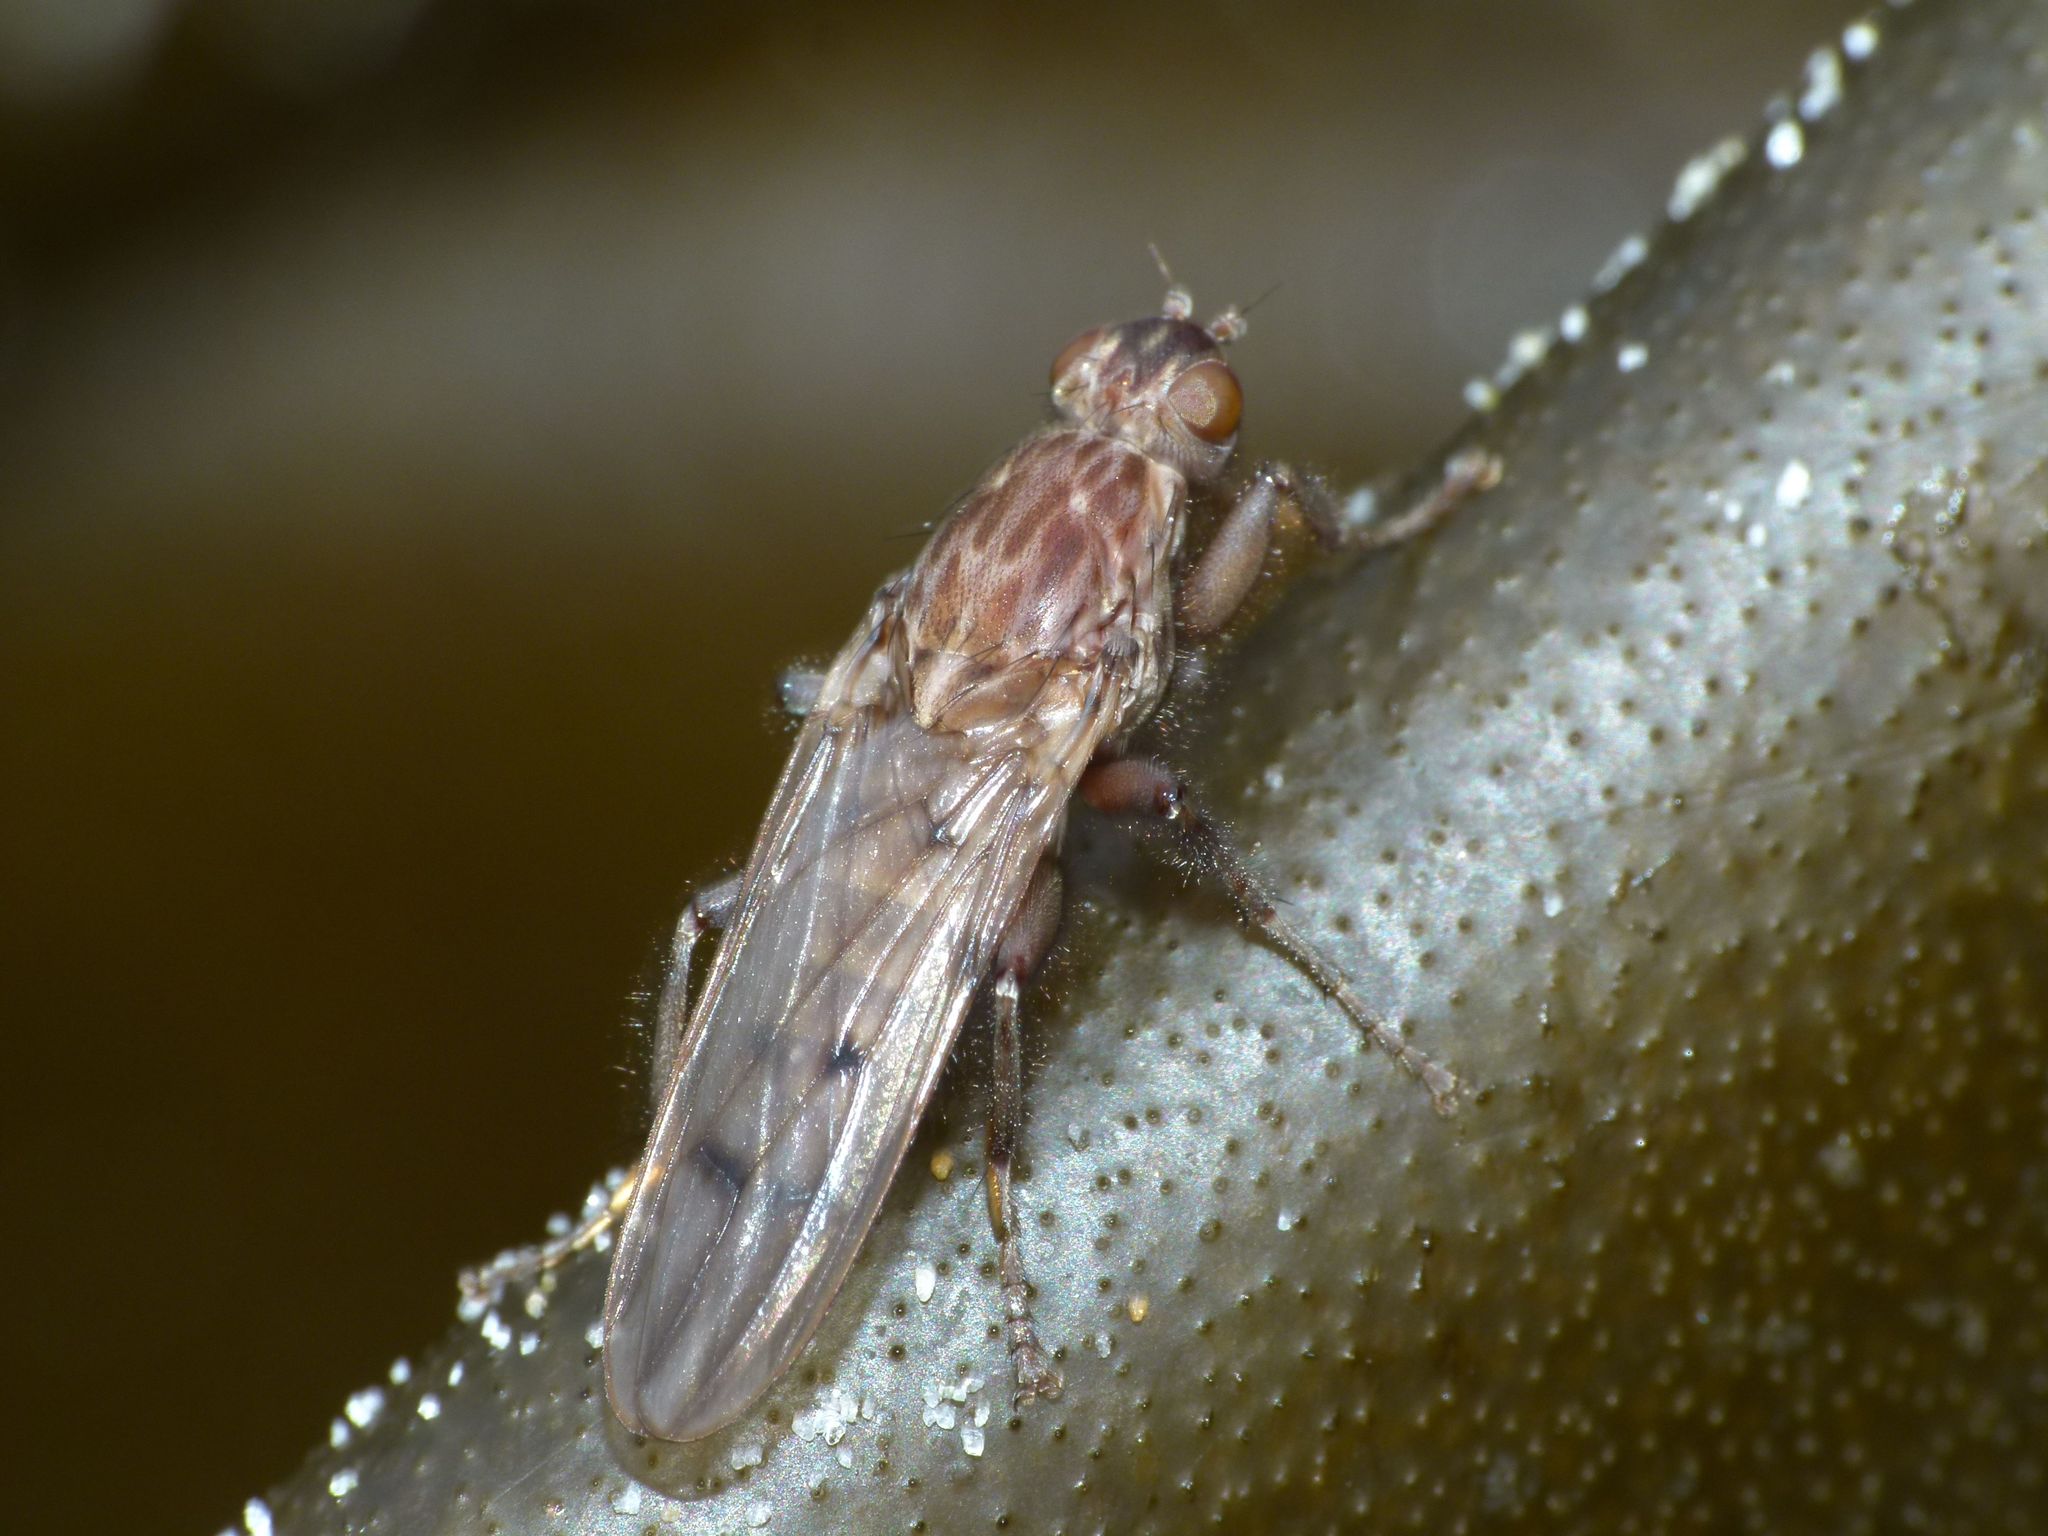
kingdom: Animalia
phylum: Arthropoda
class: Insecta
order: Diptera
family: Helcomyzidae
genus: Maorimyia
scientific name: Maorimyia bipunctata
